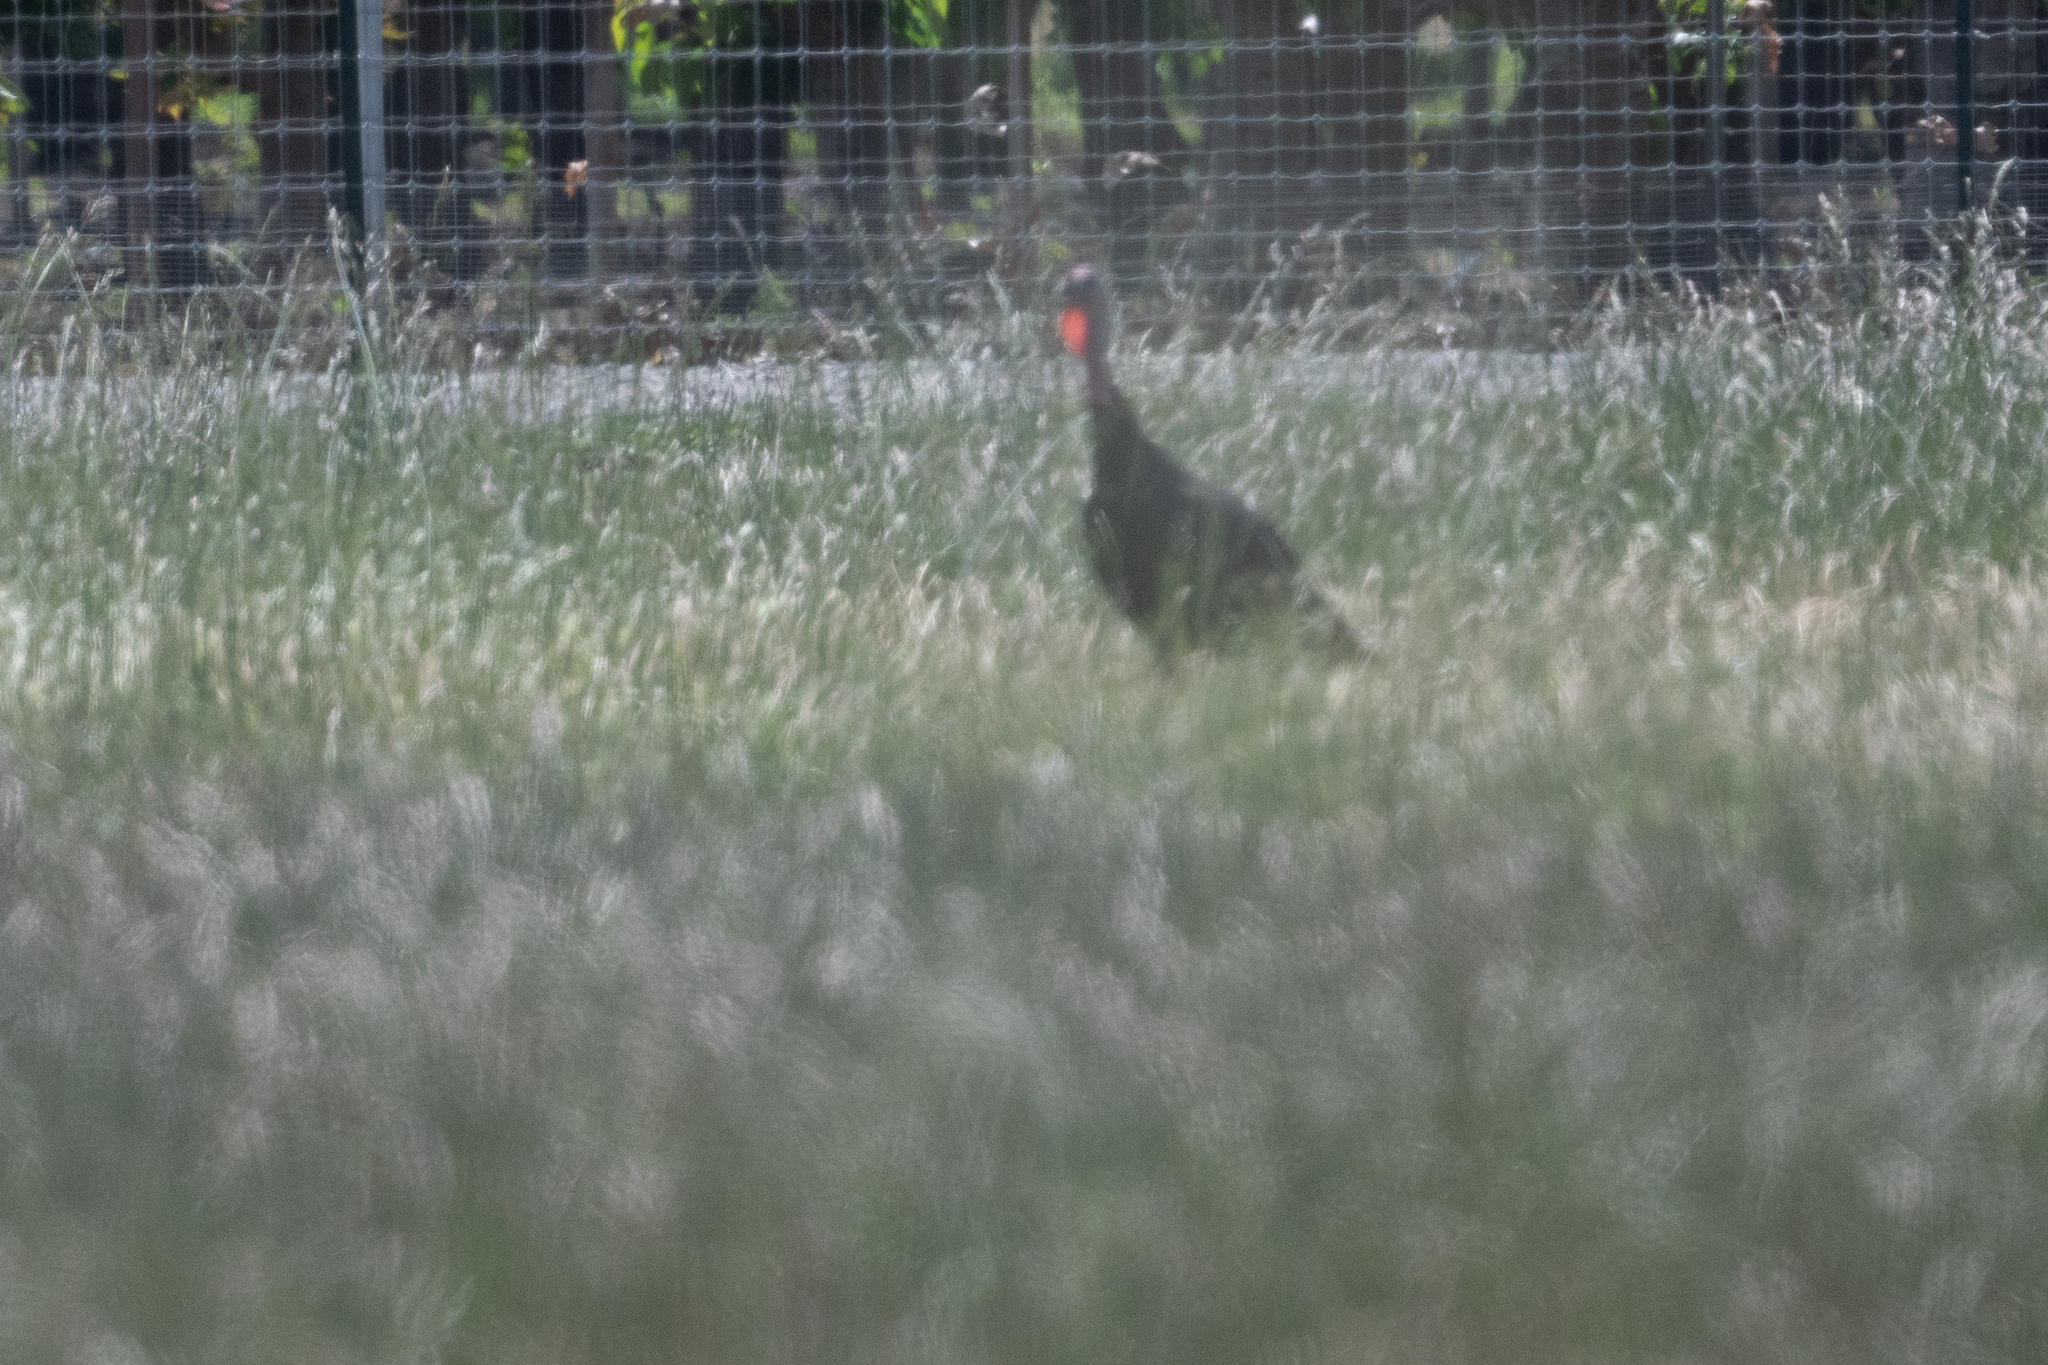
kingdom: Animalia
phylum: Chordata
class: Aves
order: Galliformes
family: Phasianidae
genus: Meleagris
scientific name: Meleagris gallopavo
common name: Wild turkey
